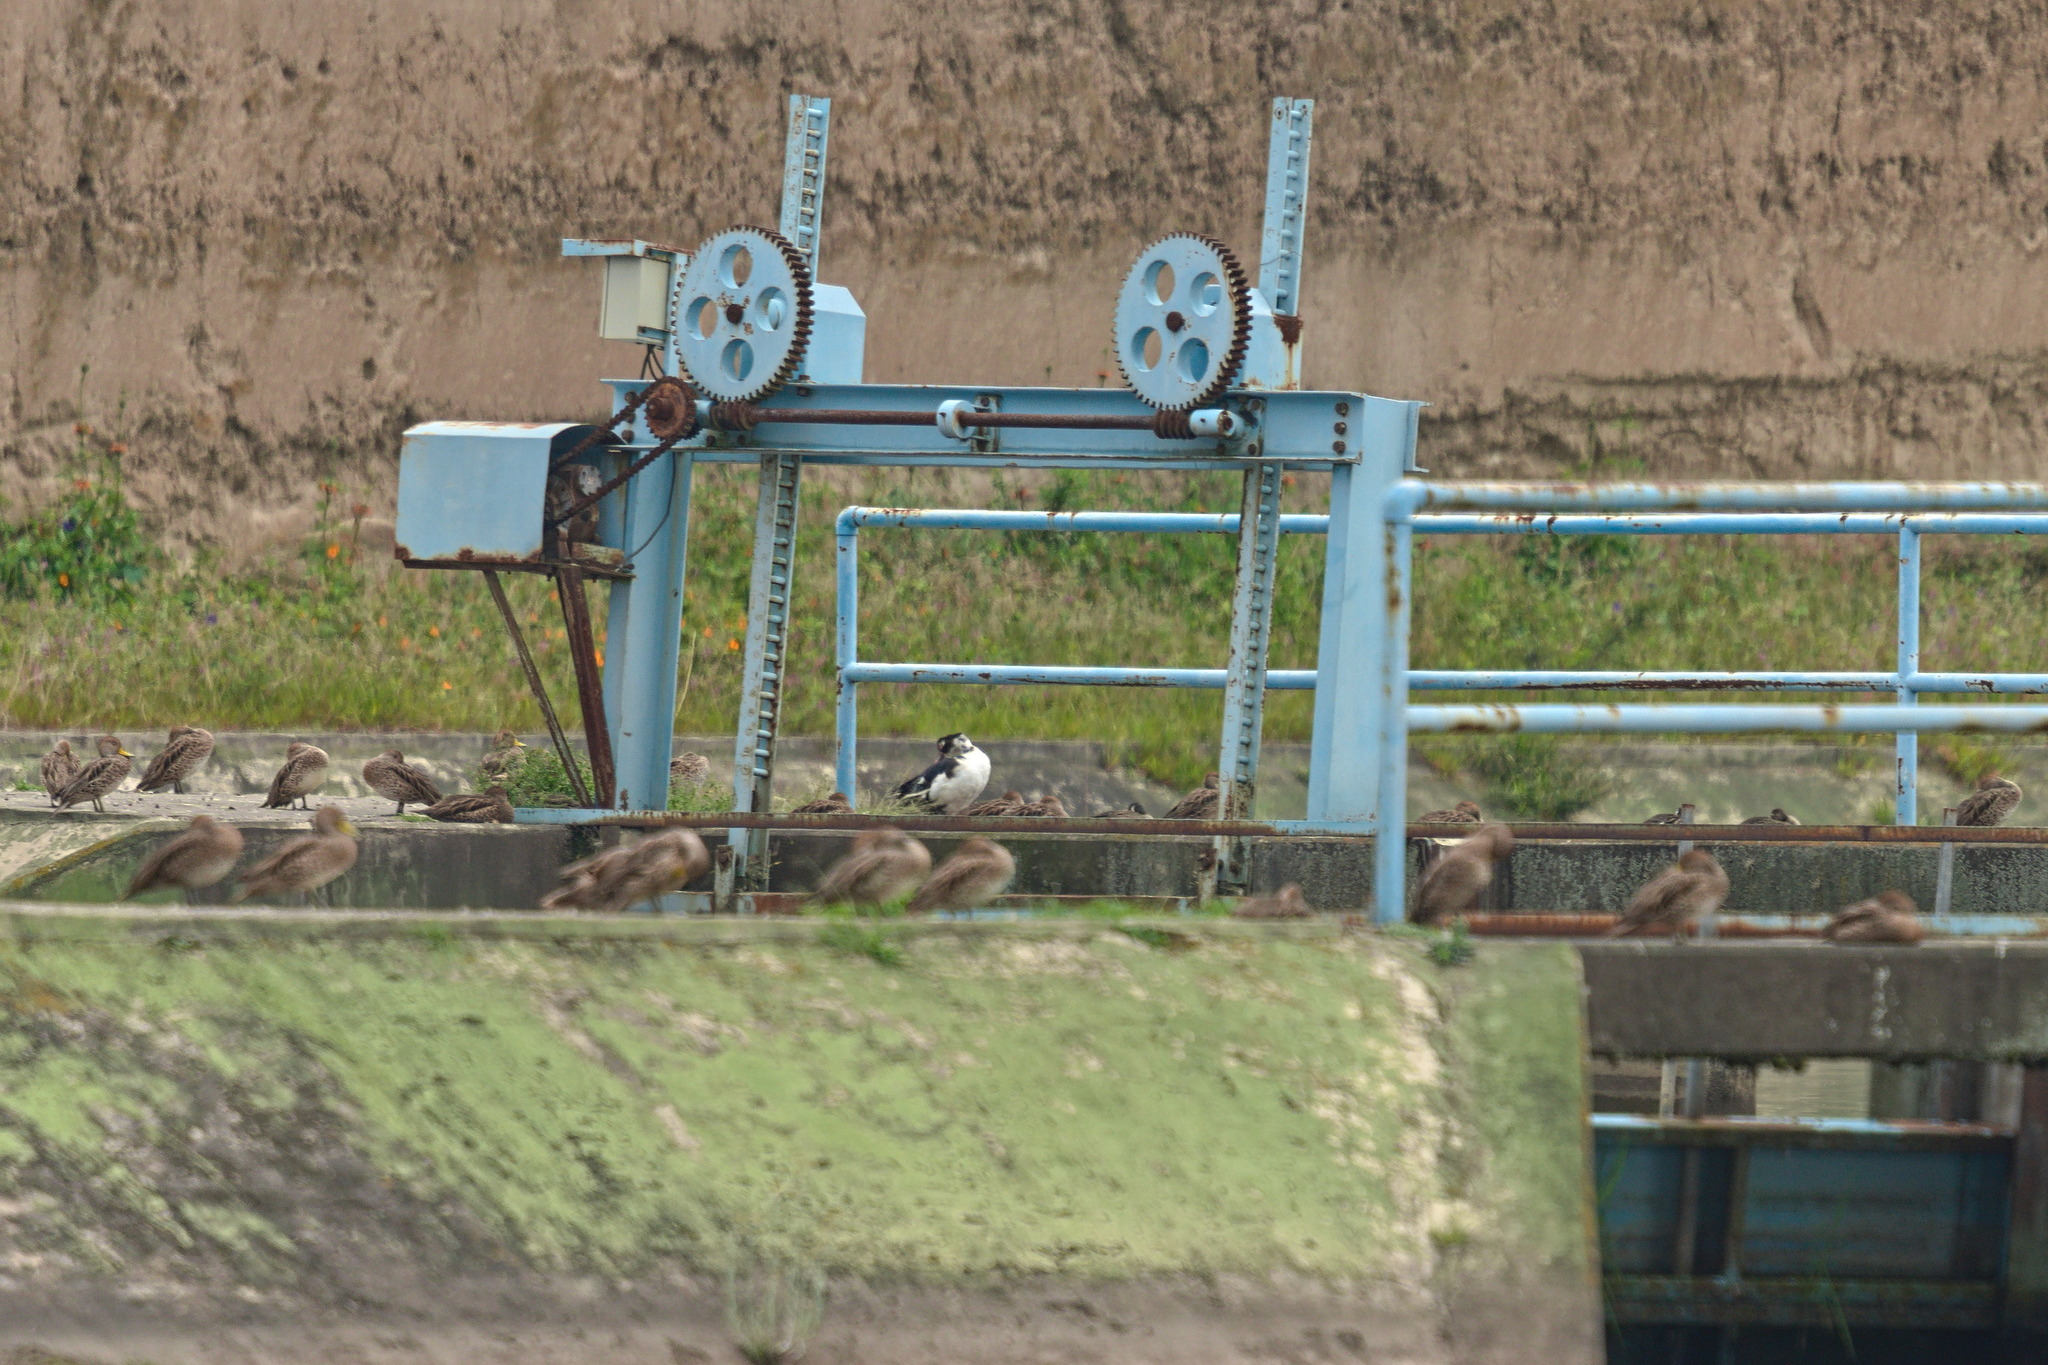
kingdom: Animalia
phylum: Chordata
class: Aves
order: Anseriformes
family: Anatidae
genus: Cairina
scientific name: Cairina moschata
